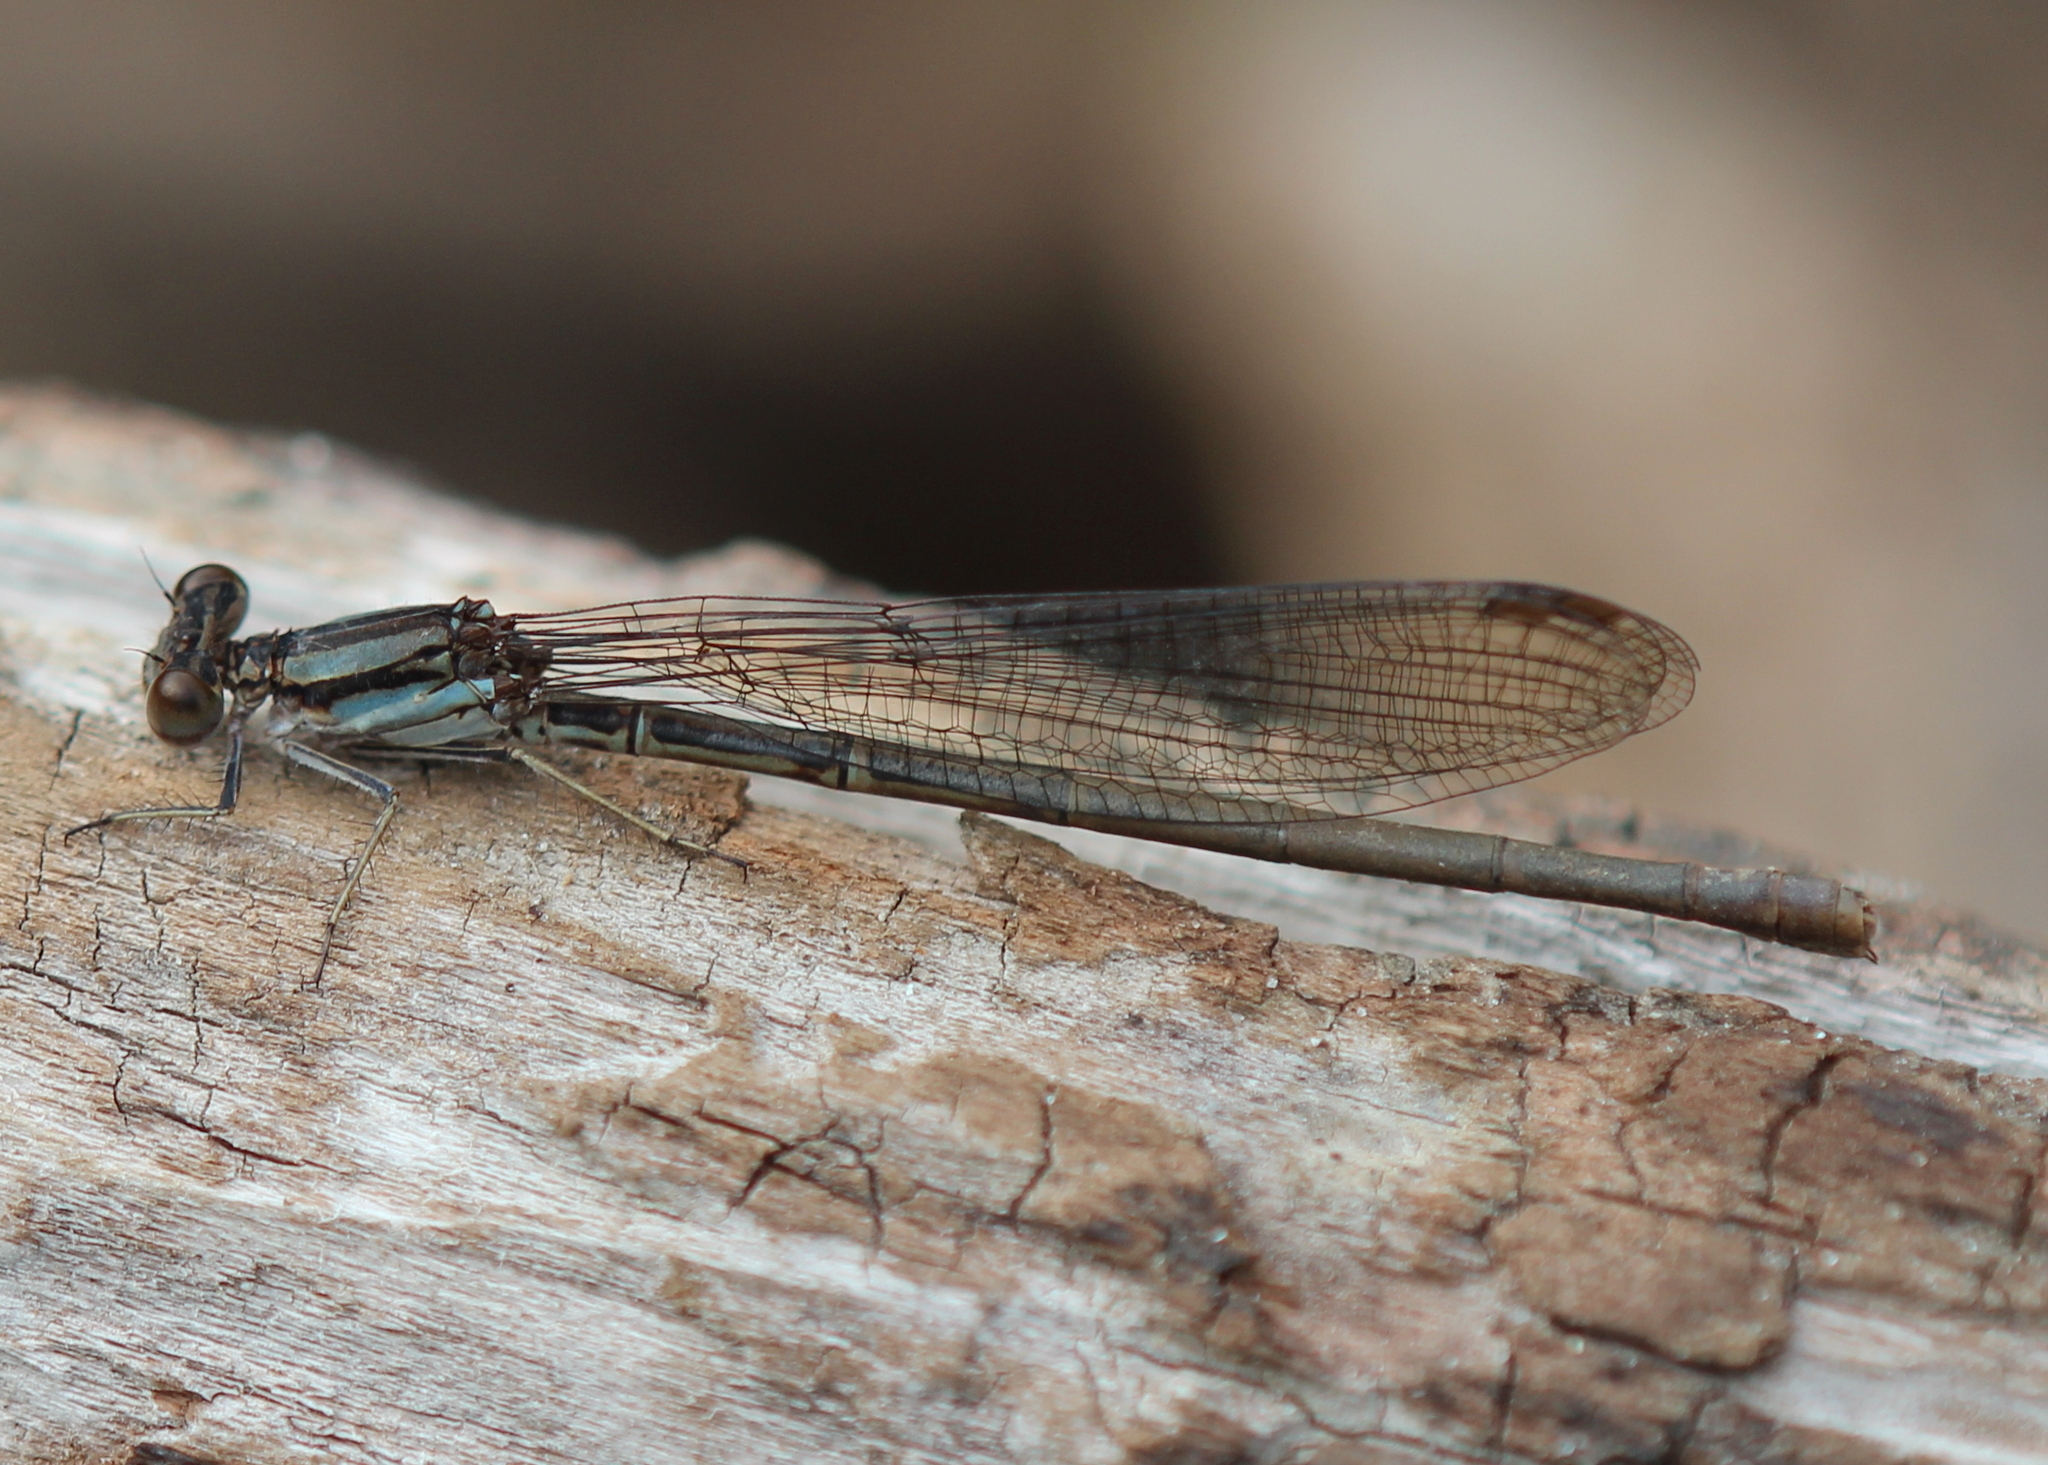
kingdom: Animalia
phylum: Arthropoda
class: Insecta
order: Odonata
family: Coenagrionidae
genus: Argia
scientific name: Argia fumipennis
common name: Variable dancer
